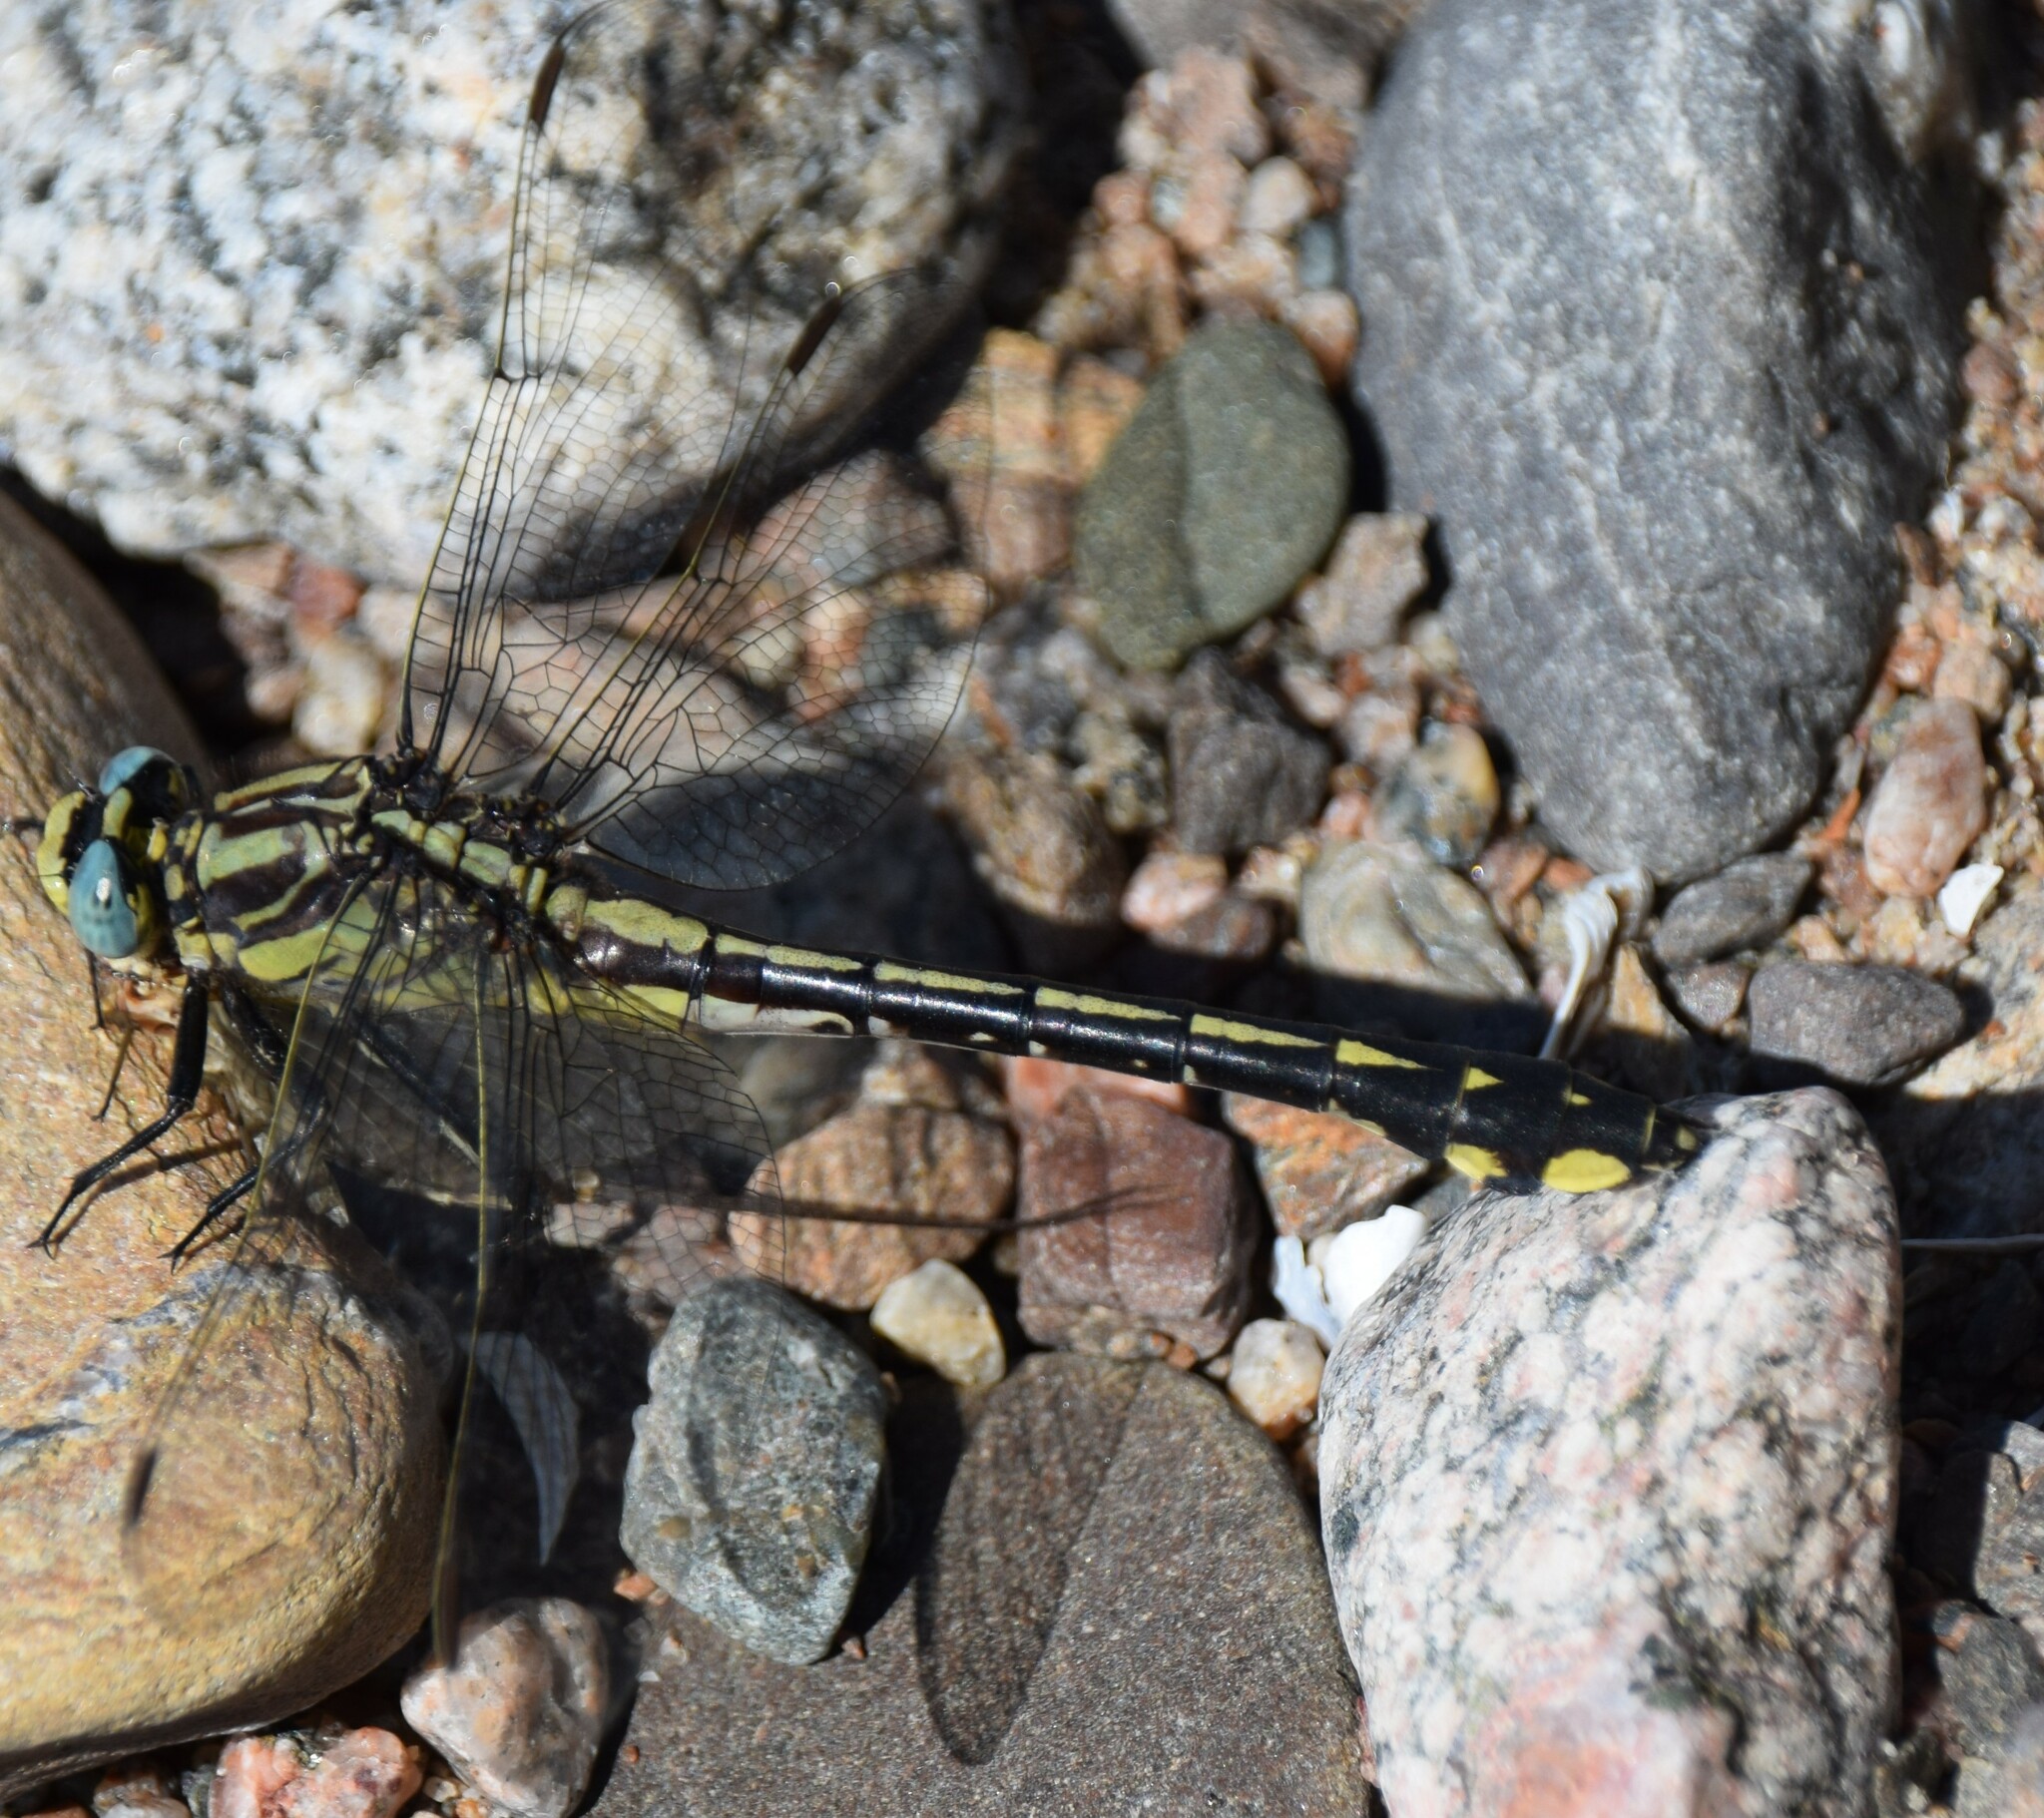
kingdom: Animalia
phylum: Arthropoda
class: Insecta
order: Odonata
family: Gomphidae
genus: Gomphurus
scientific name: Gomphurus fraternus
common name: Midland clubtail
